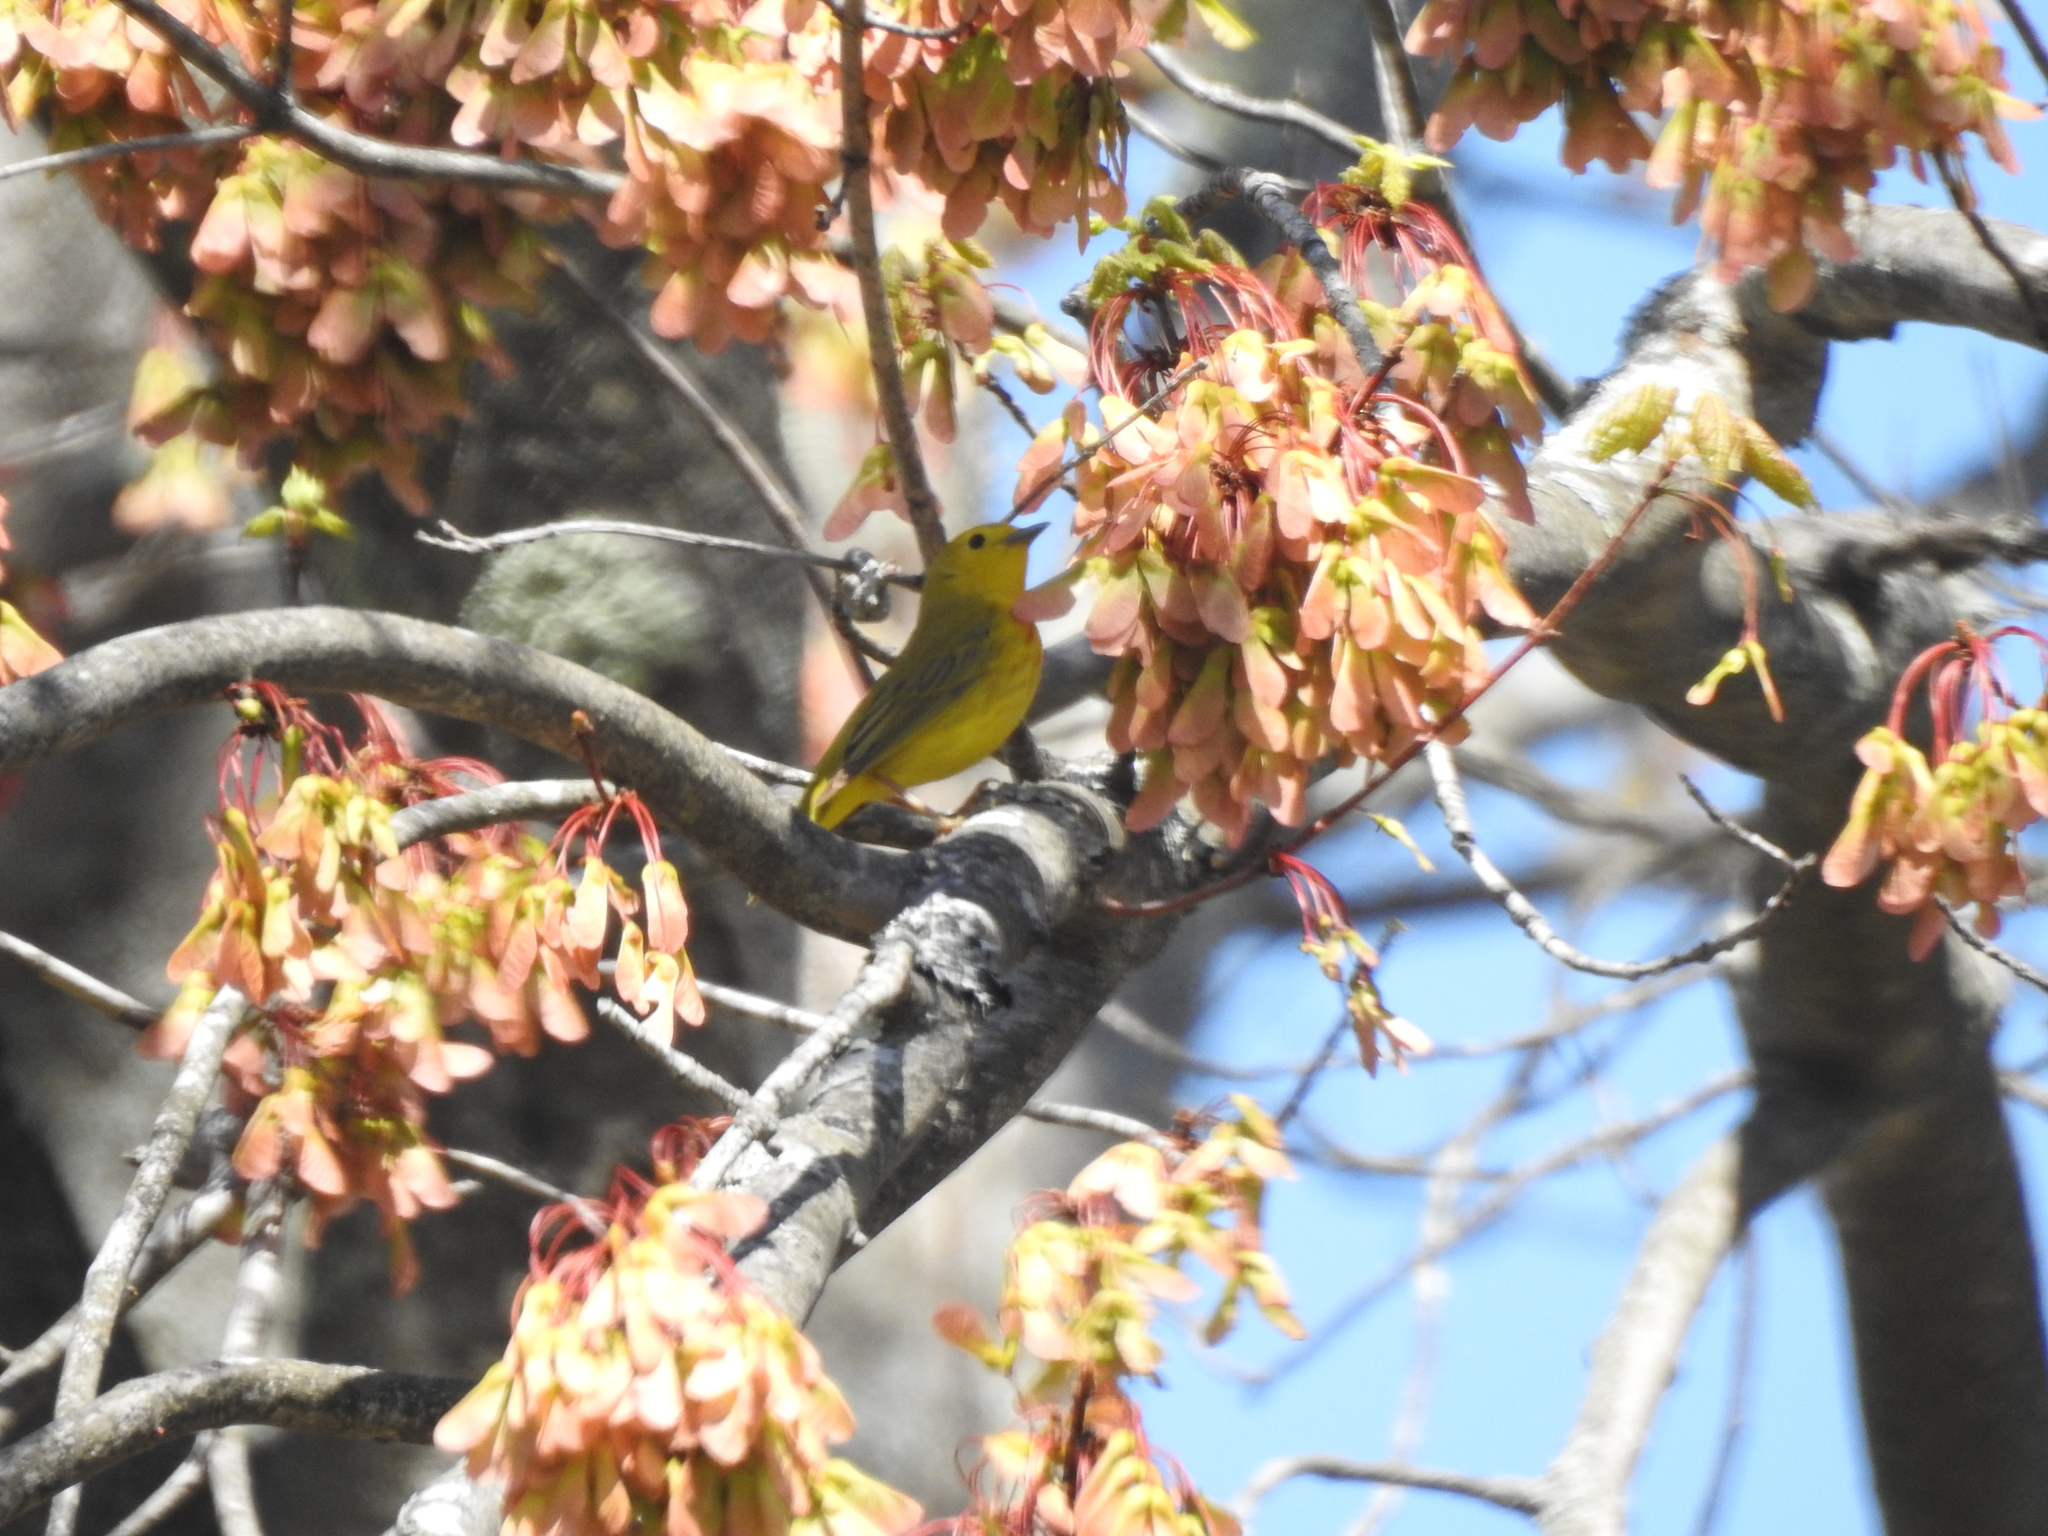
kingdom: Animalia
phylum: Chordata
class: Aves
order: Passeriformes
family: Parulidae
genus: Setophaga
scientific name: Setophaga petechia
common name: Yellow warbler
